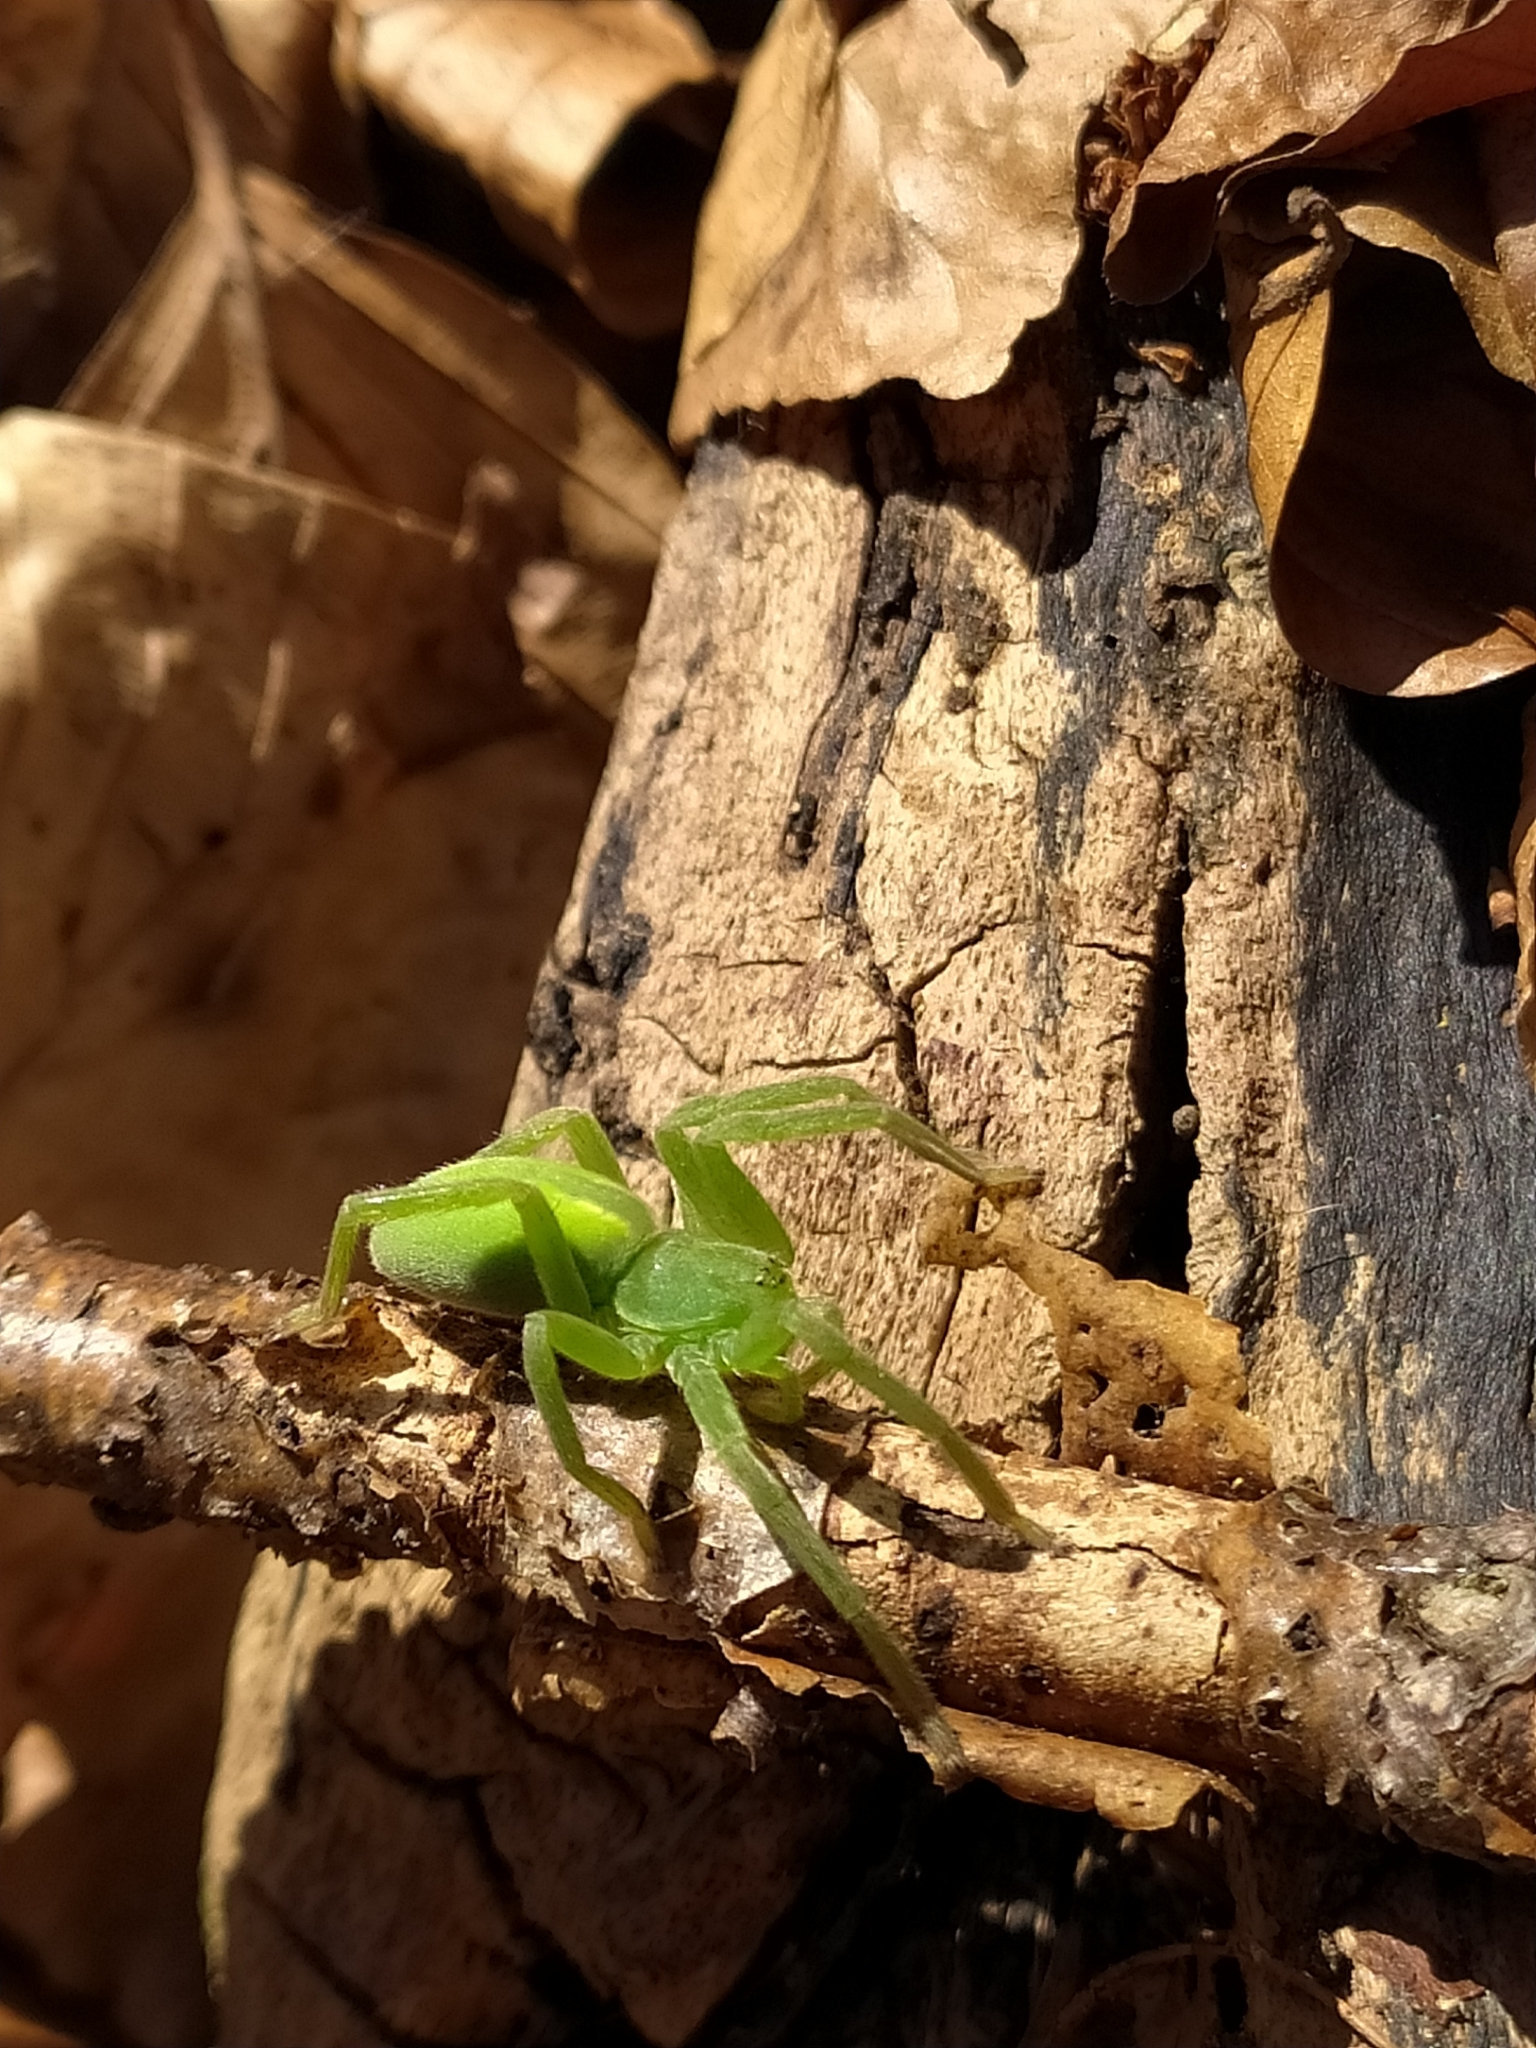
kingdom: Animalia
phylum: Arthropoda
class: Arachnida
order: Araneae
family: Sparassidae
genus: Micrommata
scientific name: Micrommata virescens
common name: Green spider
